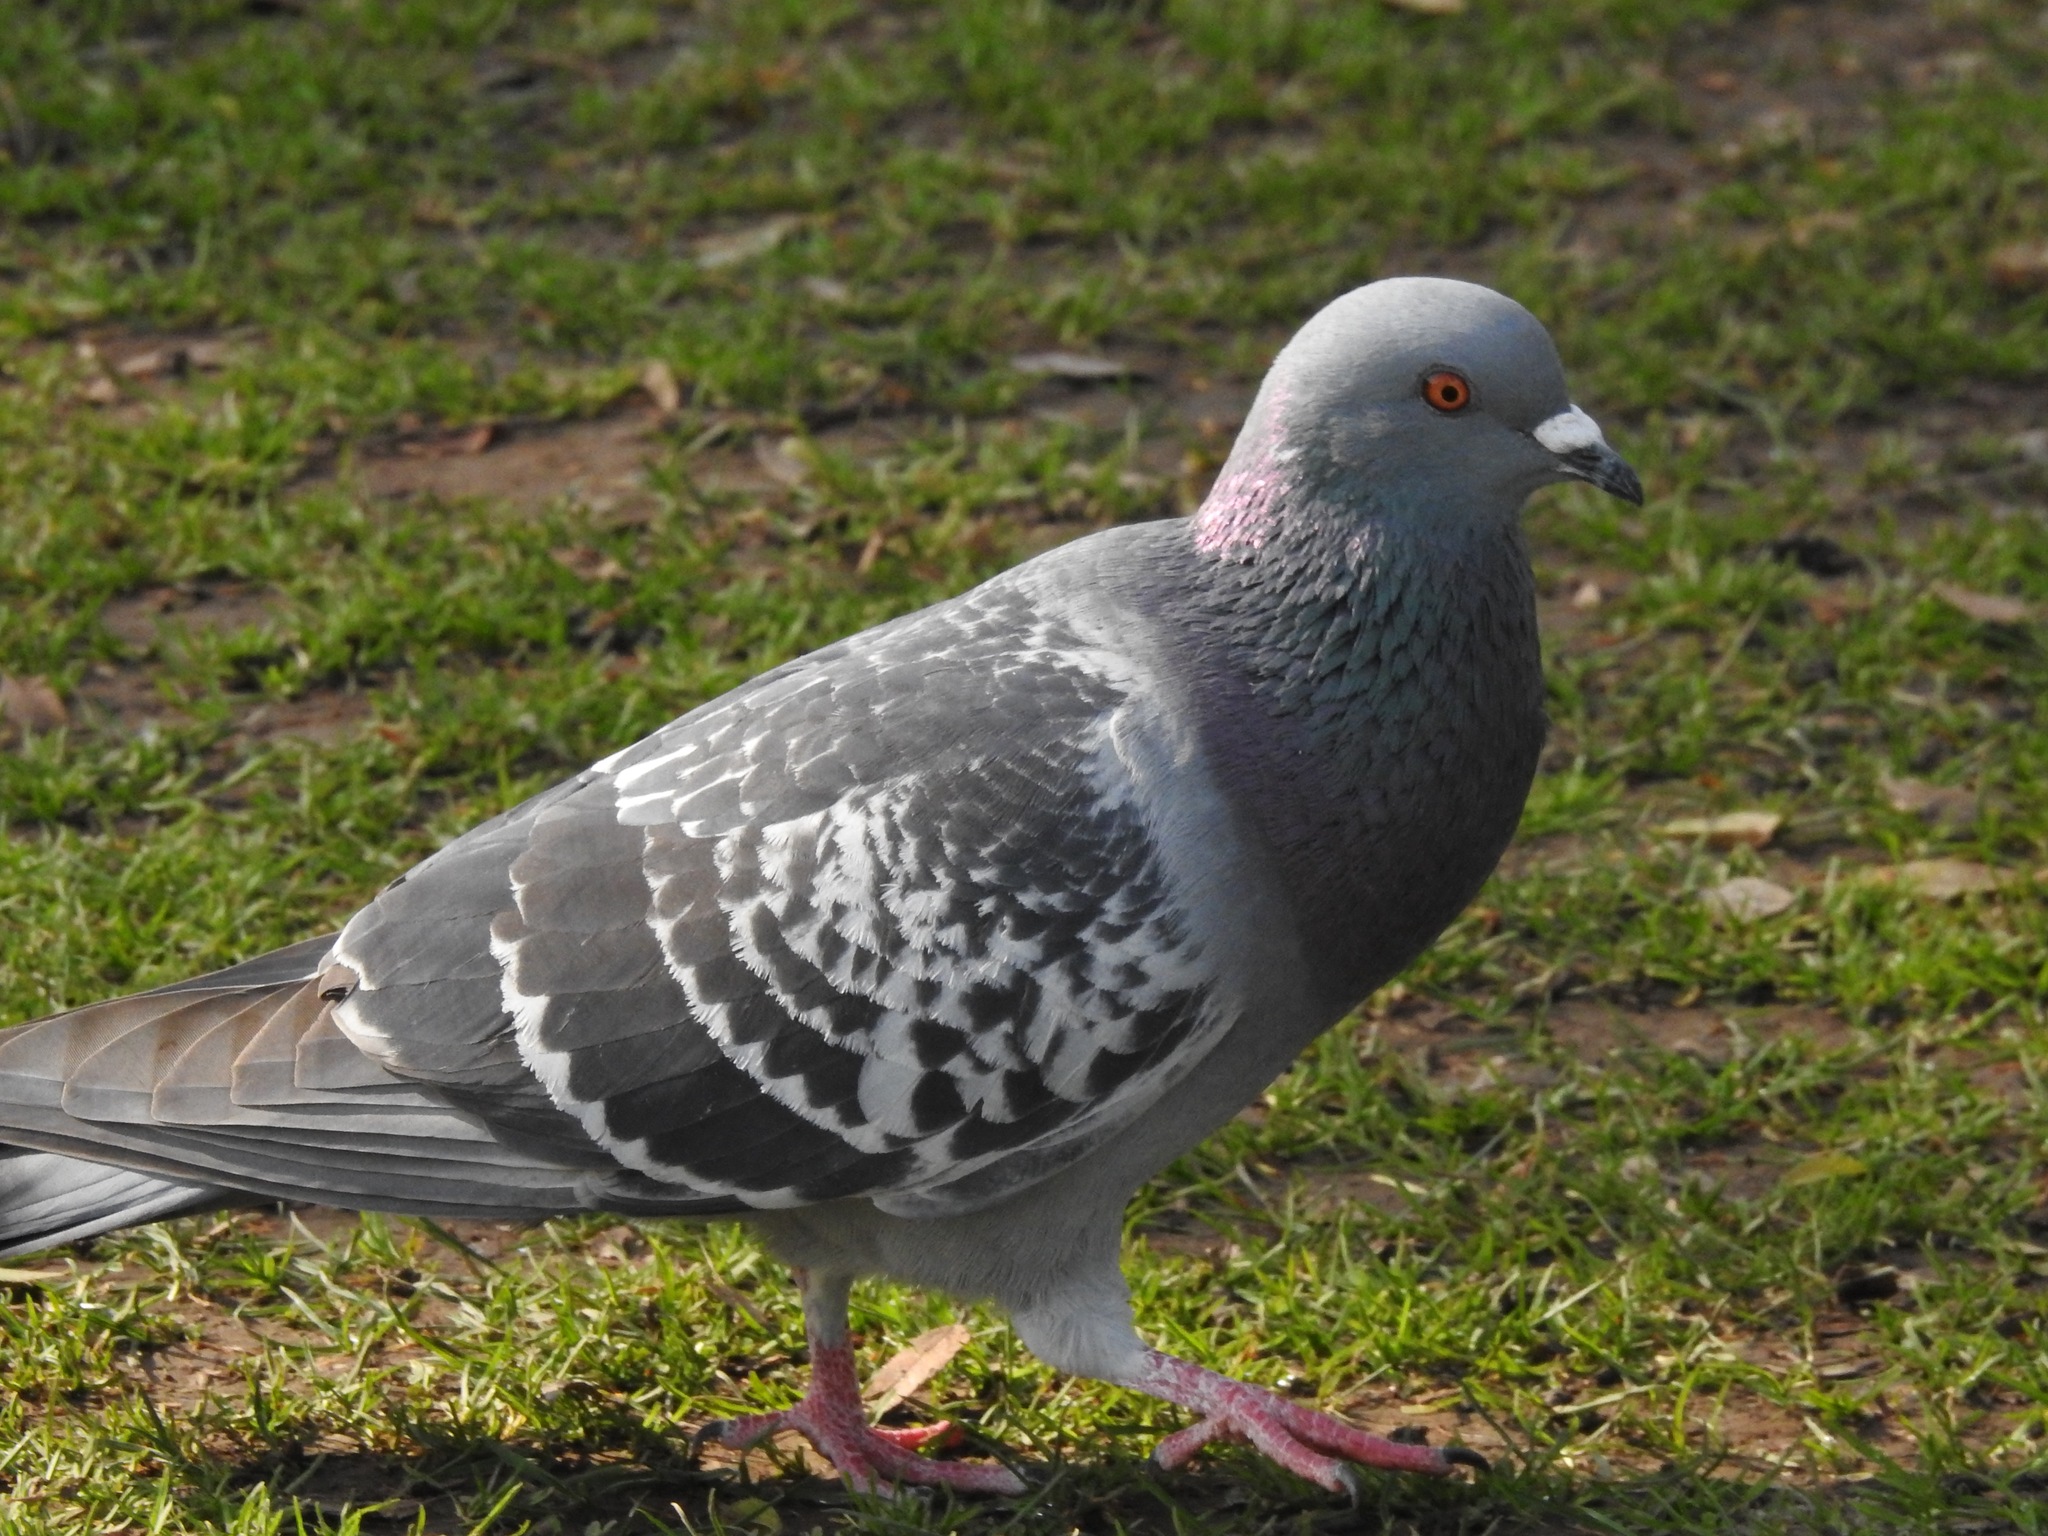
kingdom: Animalia
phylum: Chordata
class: Aves
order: Columbiformes
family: Columbidae
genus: Columba
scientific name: Columba livia
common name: Rock pigeon
